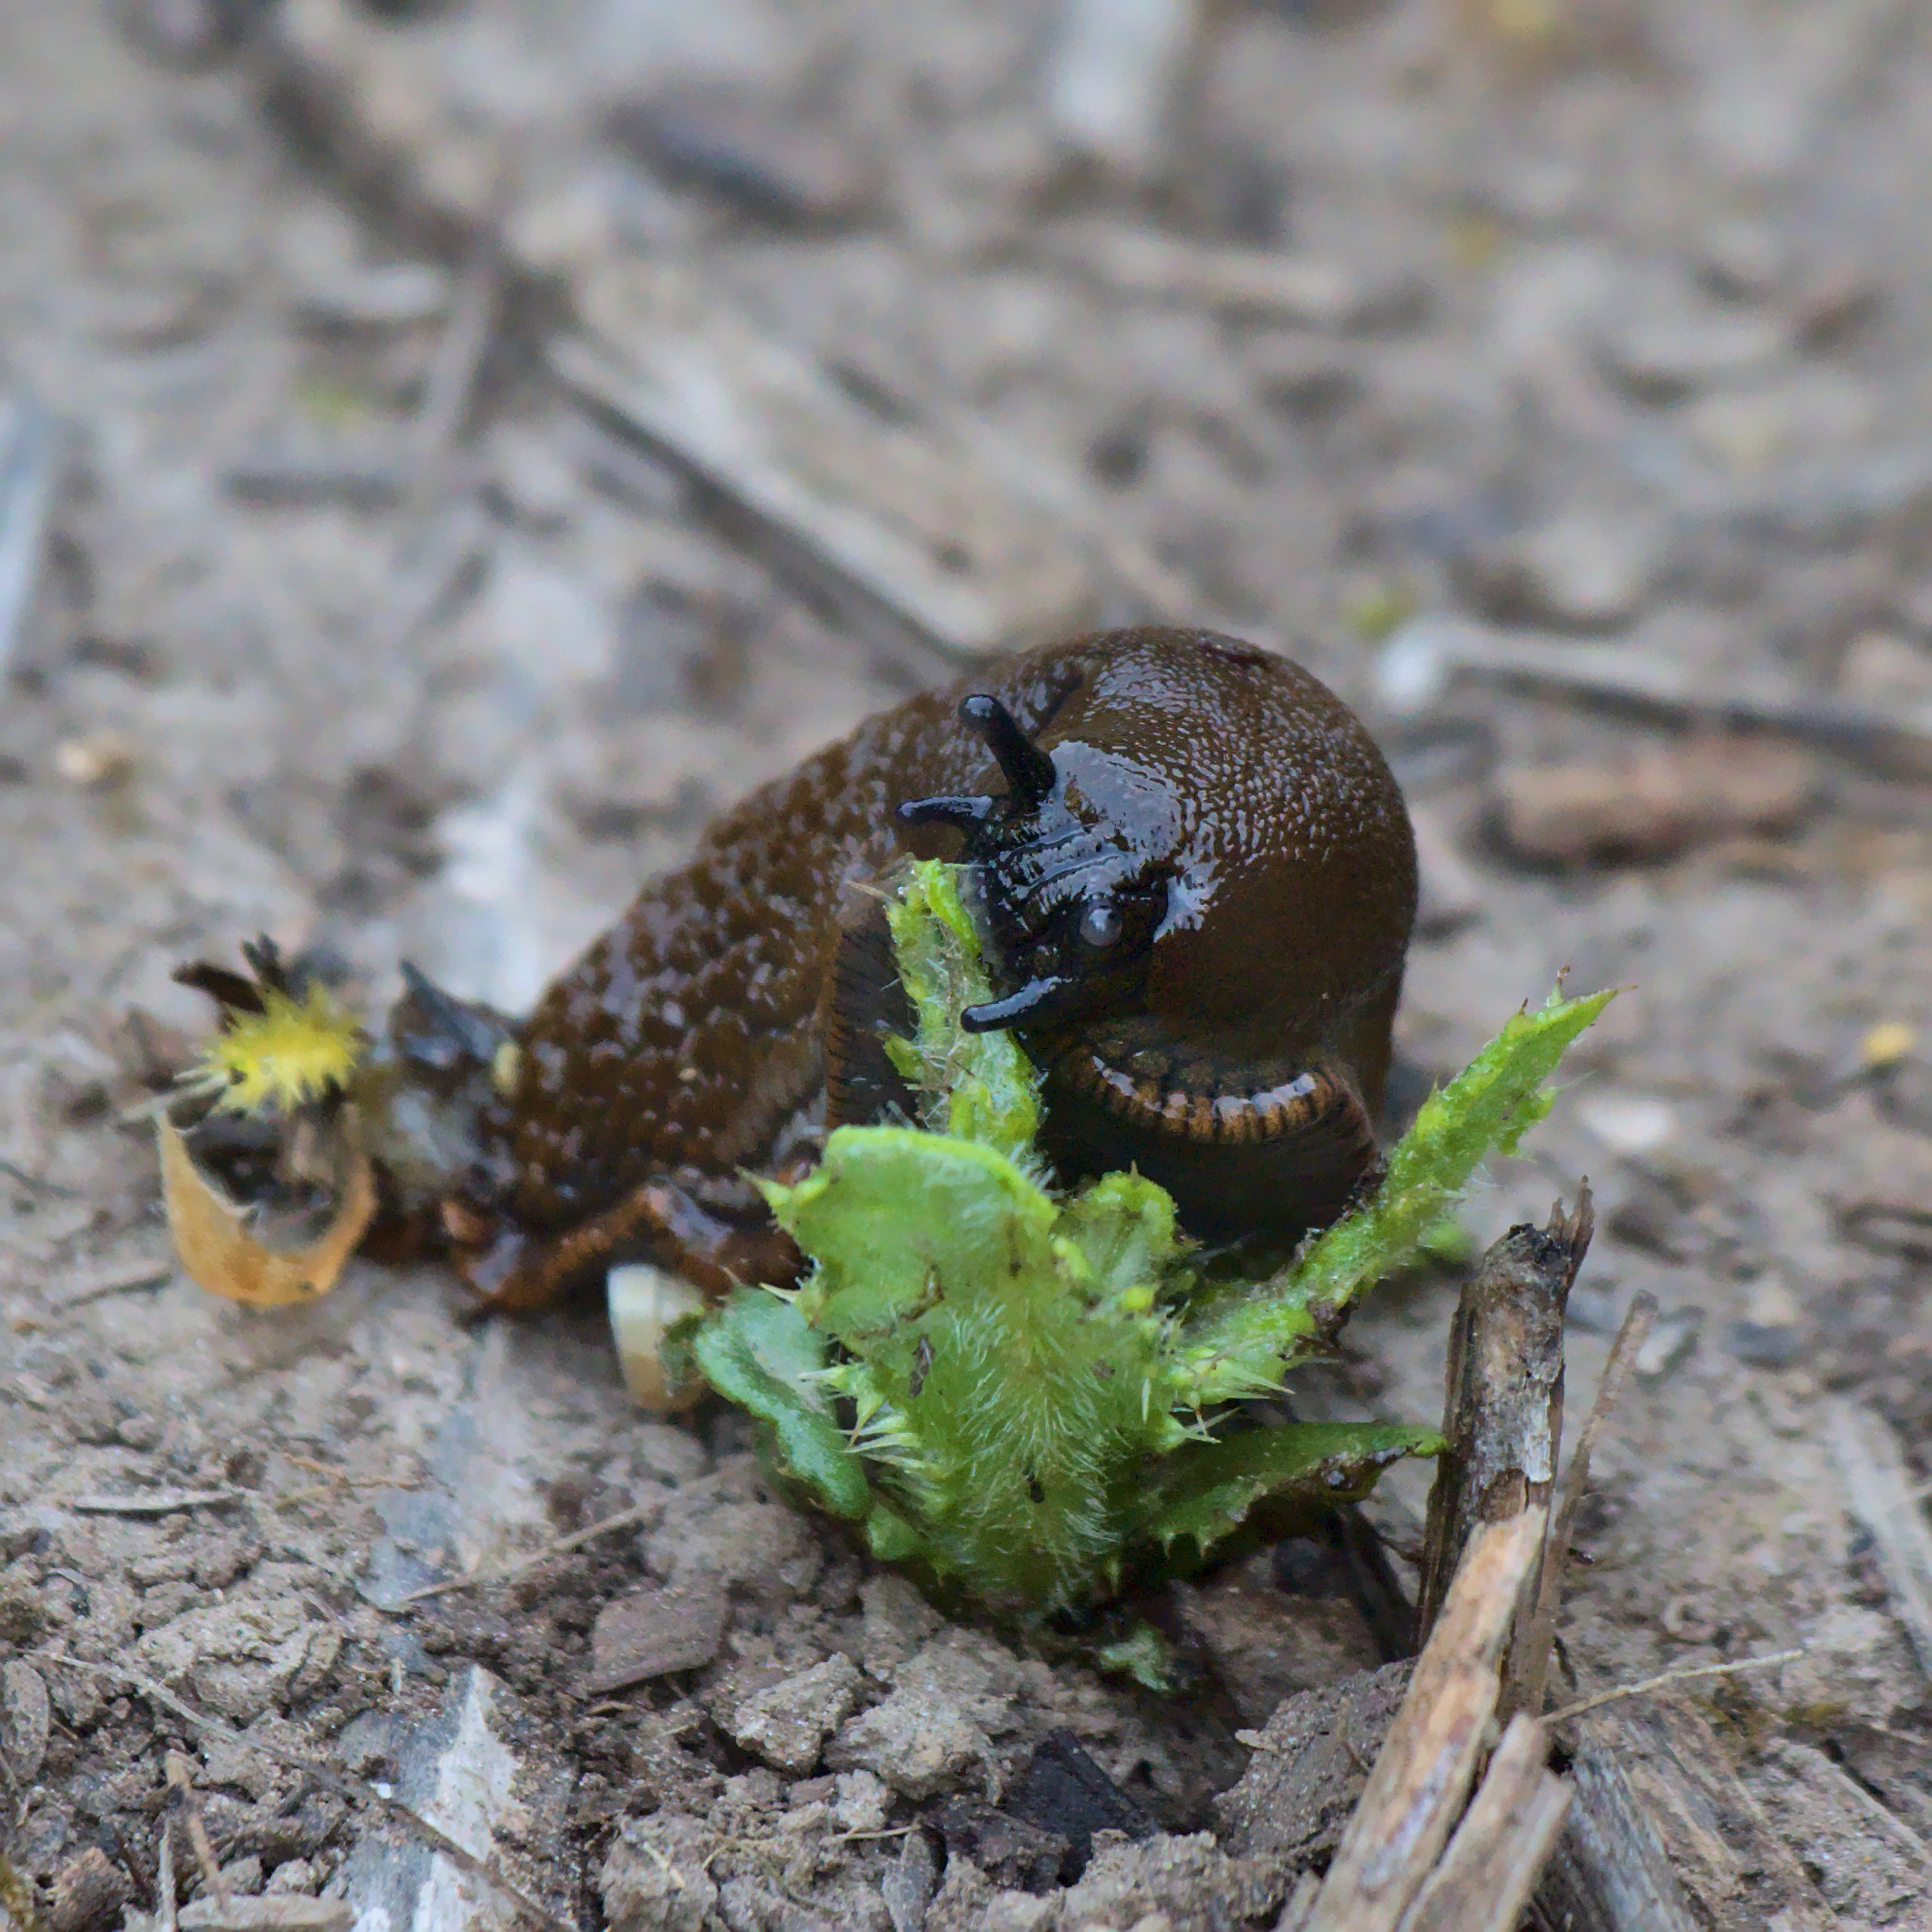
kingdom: Animalia
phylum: Mollusca
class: Gastropoda
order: Stylommatophora
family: Arionidae
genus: Arion
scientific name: Arion rufus
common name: Chocolate arion
